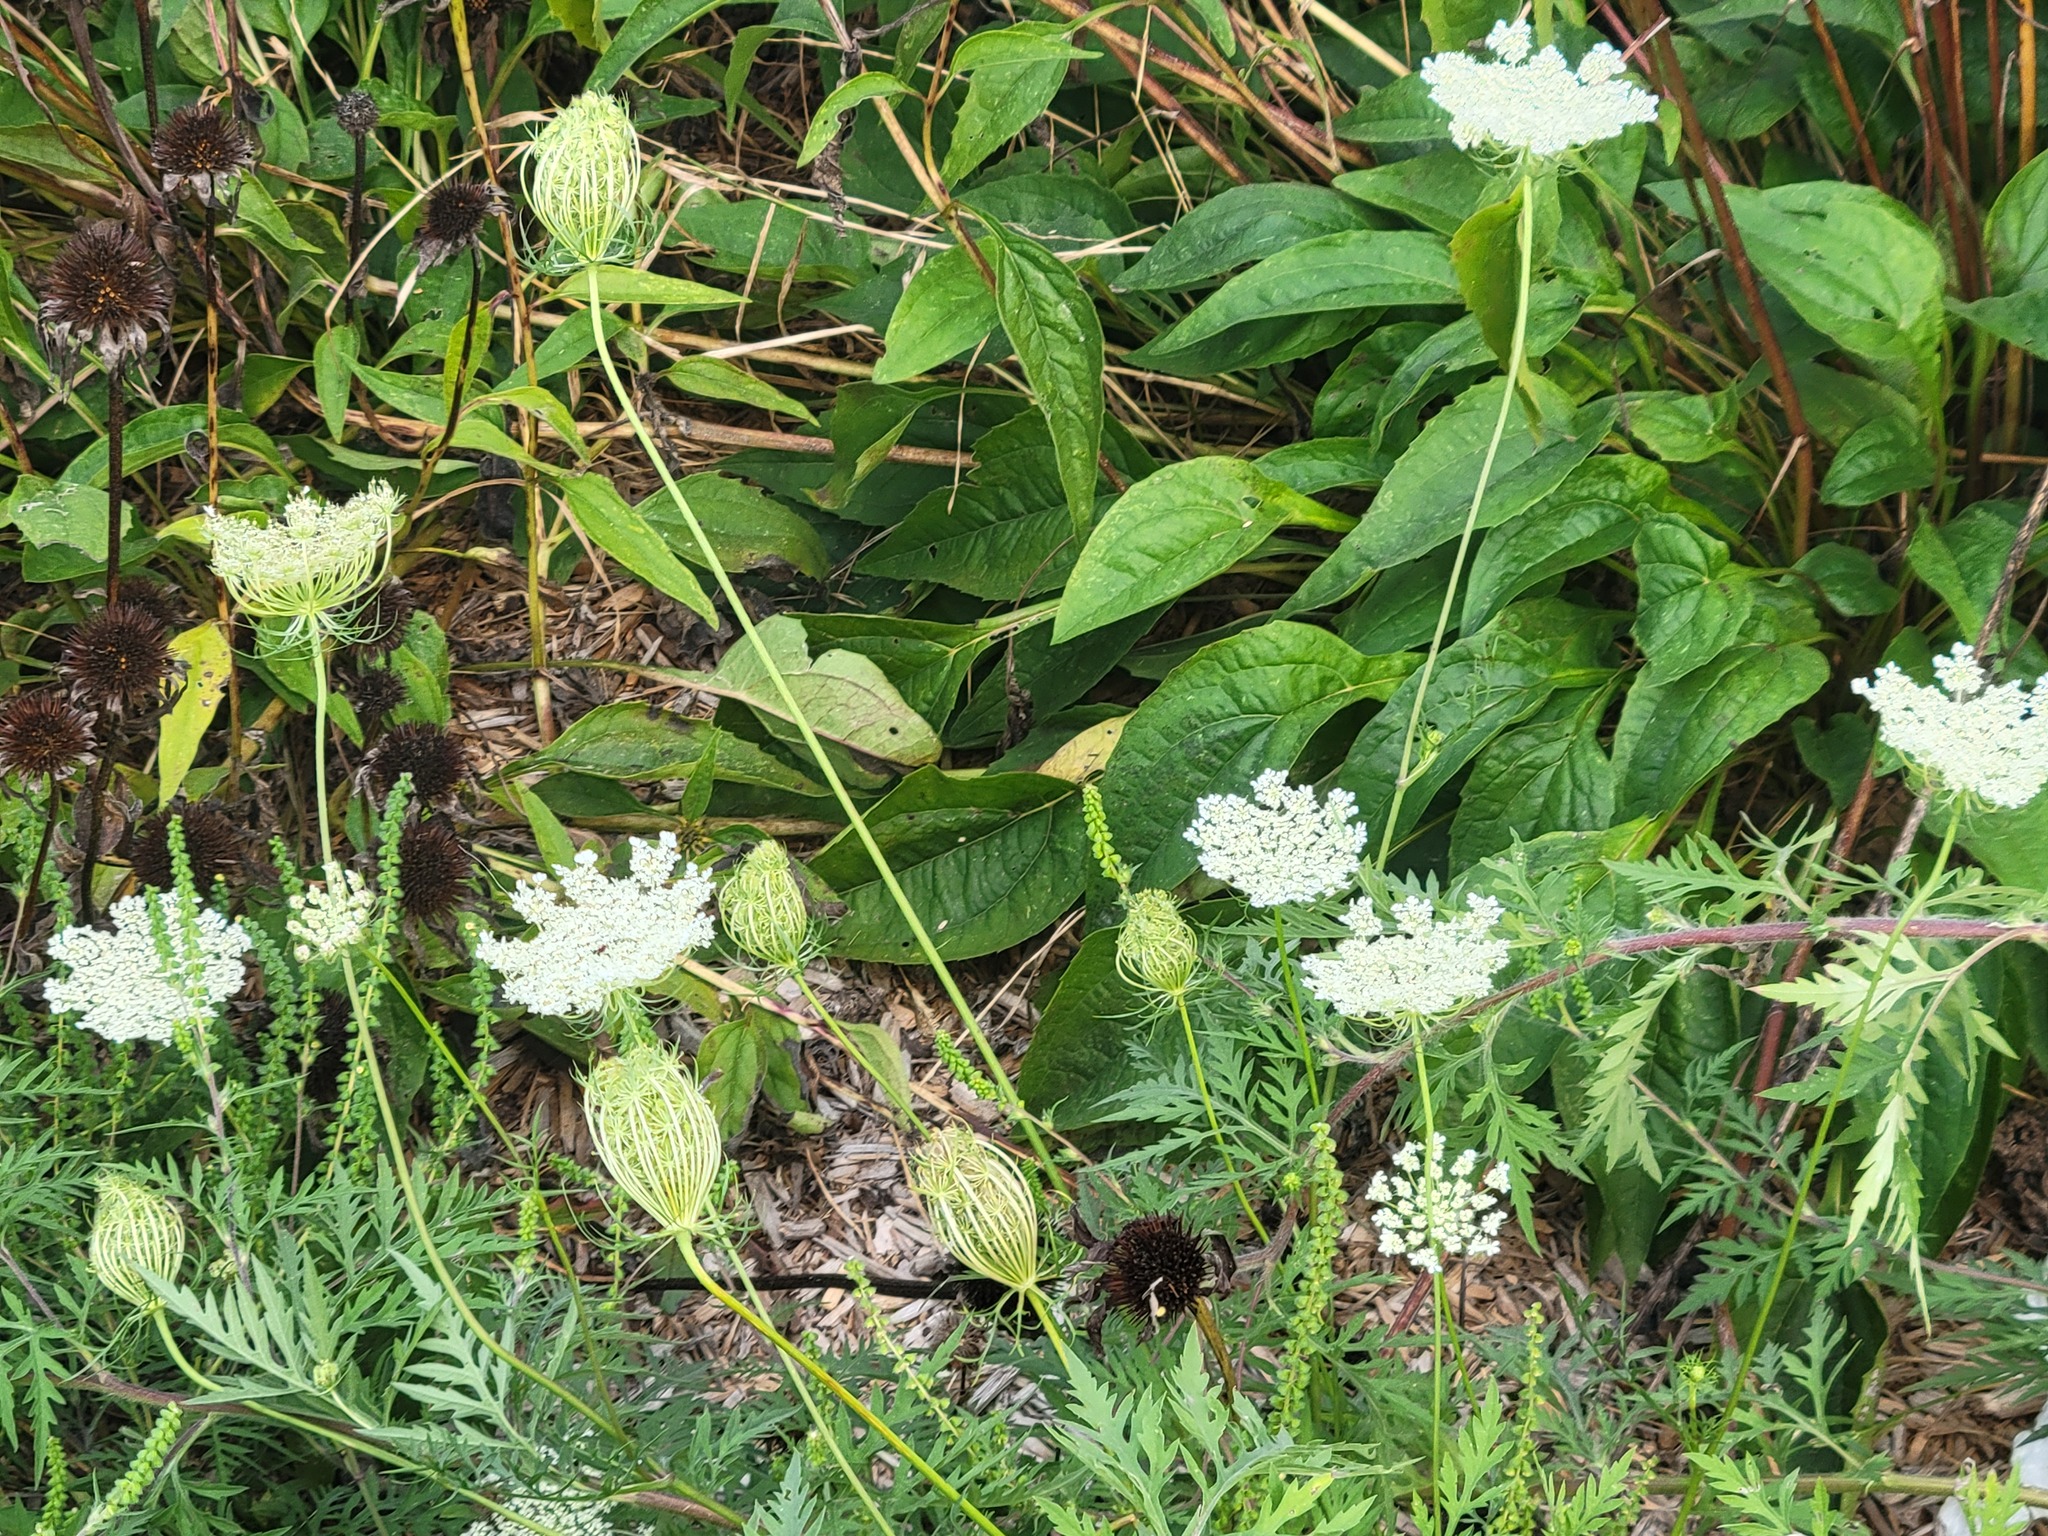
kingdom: Plantae
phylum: Tracheophyta
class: Magnoliopsida
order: Apiales
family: Apiaceae
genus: Daucus
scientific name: Daucus carota
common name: Wild carrot
